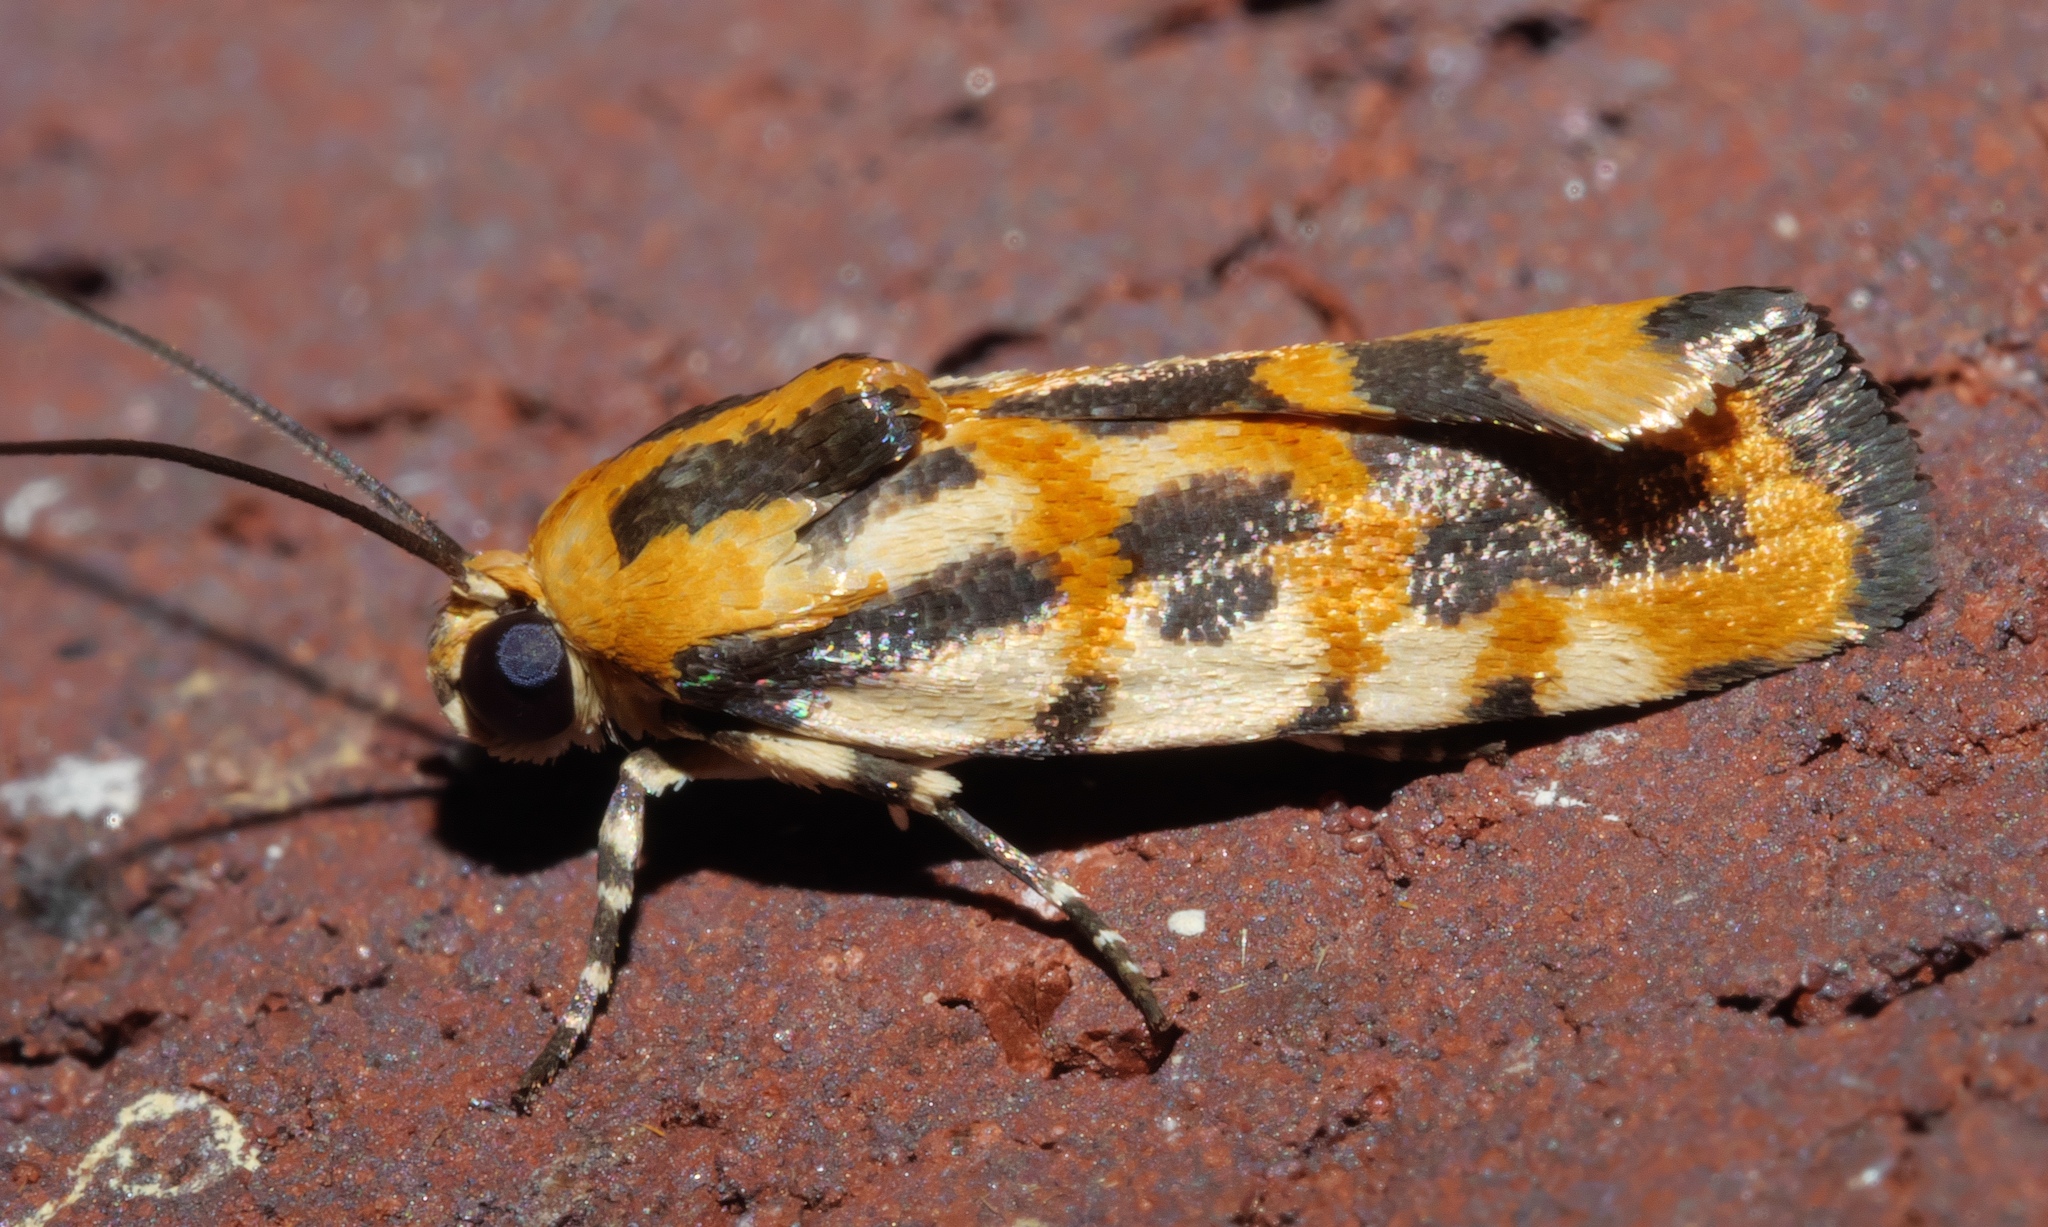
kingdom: Animalia
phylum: Arthropoda
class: Insecta
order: Lepidoptera
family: Noctuidae
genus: Acontia
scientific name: Acontia leo
